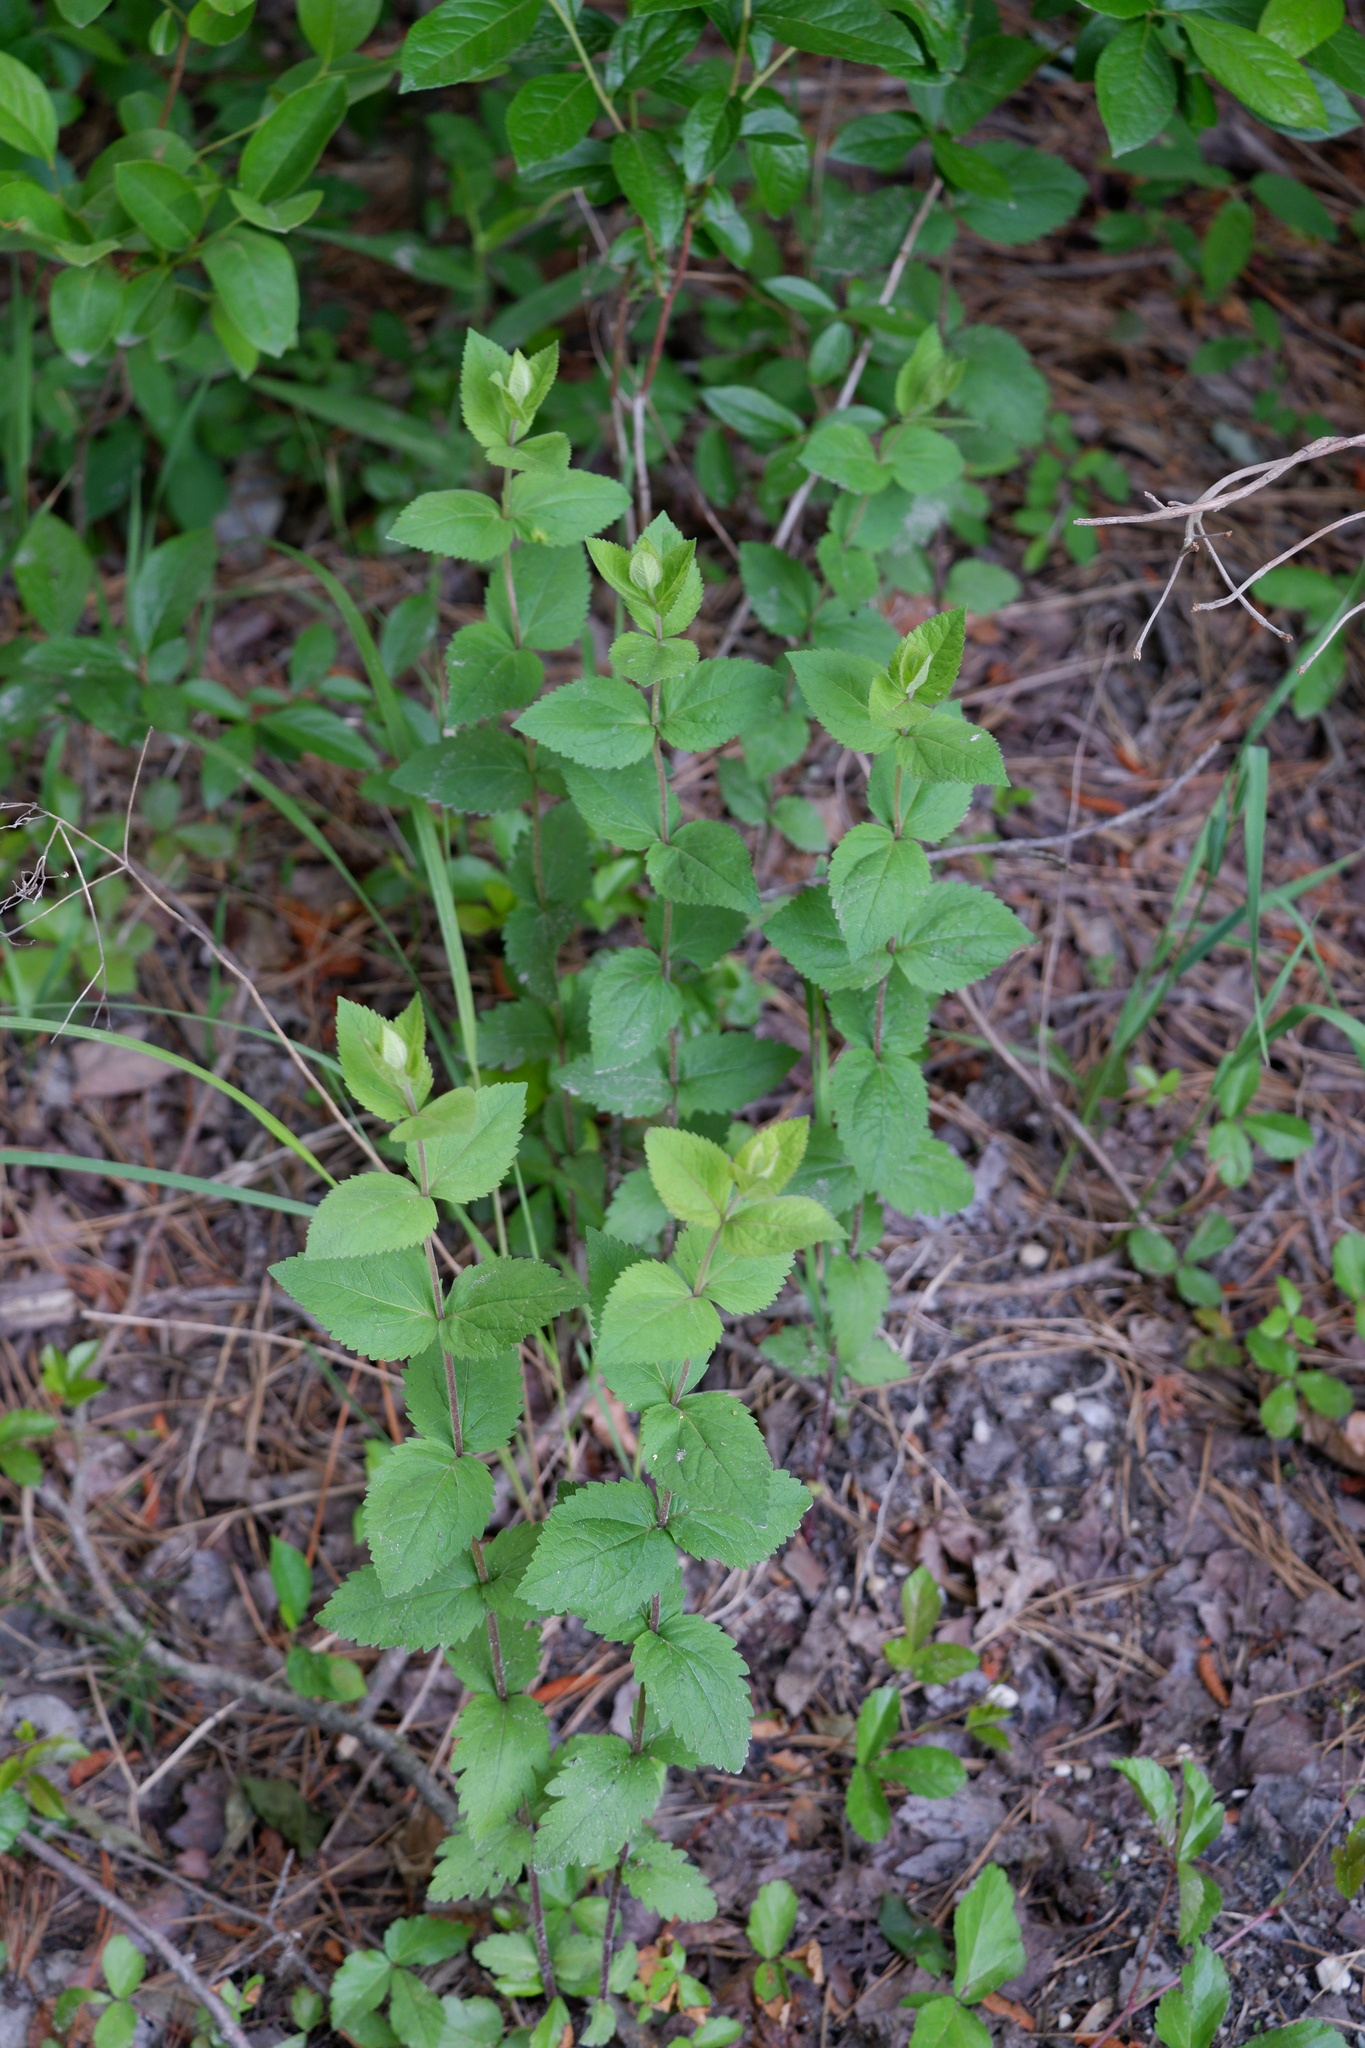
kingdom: Plantae
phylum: Tracheophyta
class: Magnoliopsida
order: Asterales
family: Asteraceae
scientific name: Asteraceae
